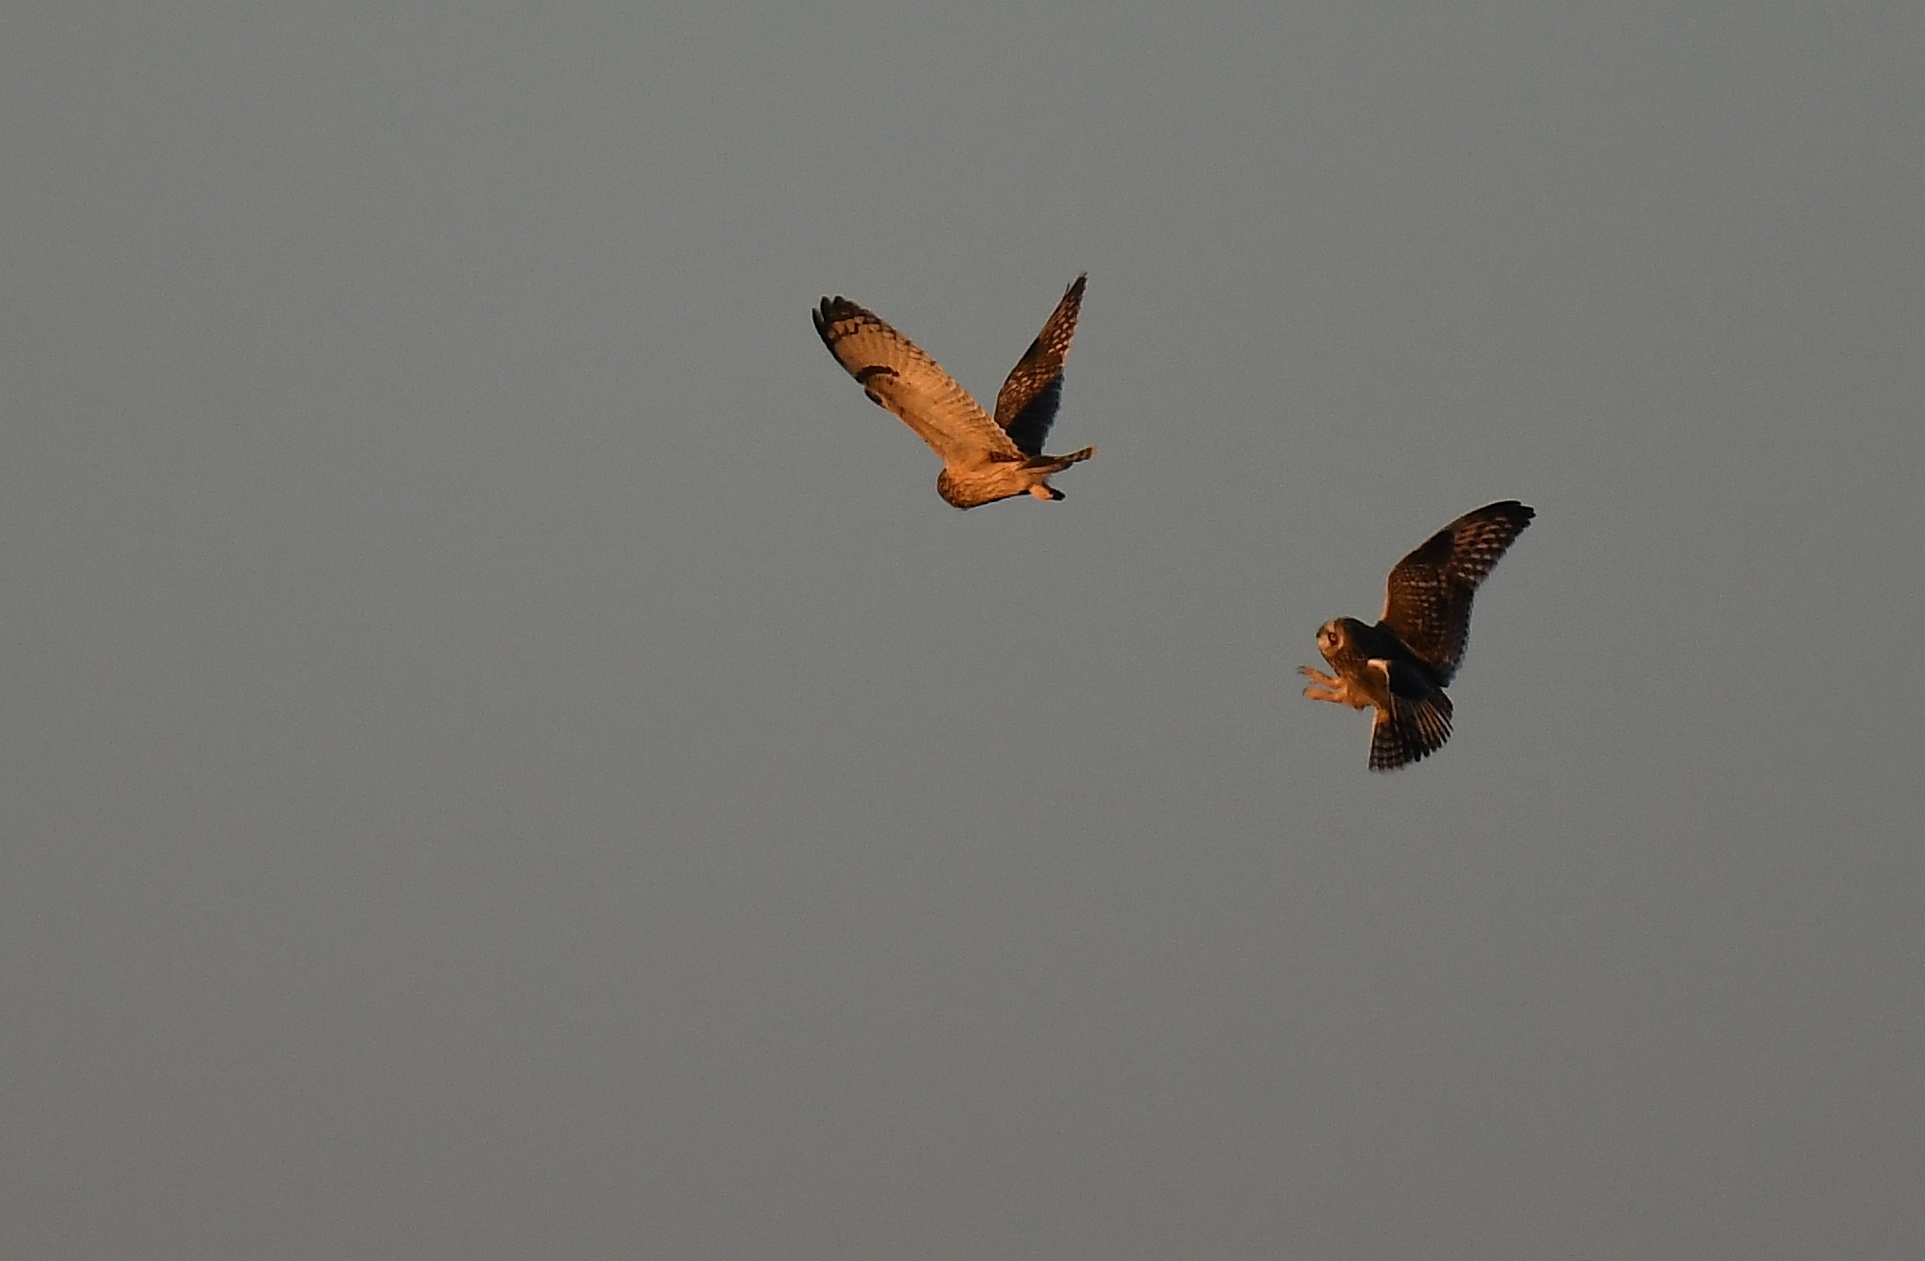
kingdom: Animalia
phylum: Chordata
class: Aves
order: Strigiformes
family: Strigidae
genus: Asio
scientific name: Asio flammeus
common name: Short-eared owl
